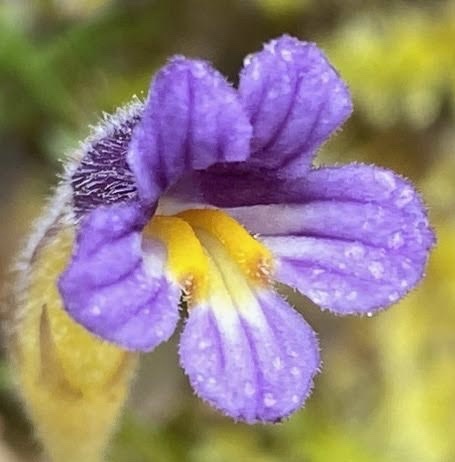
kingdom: Plantae
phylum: Tracheophyta
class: Magnoliopsida
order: Lamiales
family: Orobanchaceae
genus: Aphyllon
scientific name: Aphyllon uniflorum
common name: One-flowered broomrape
